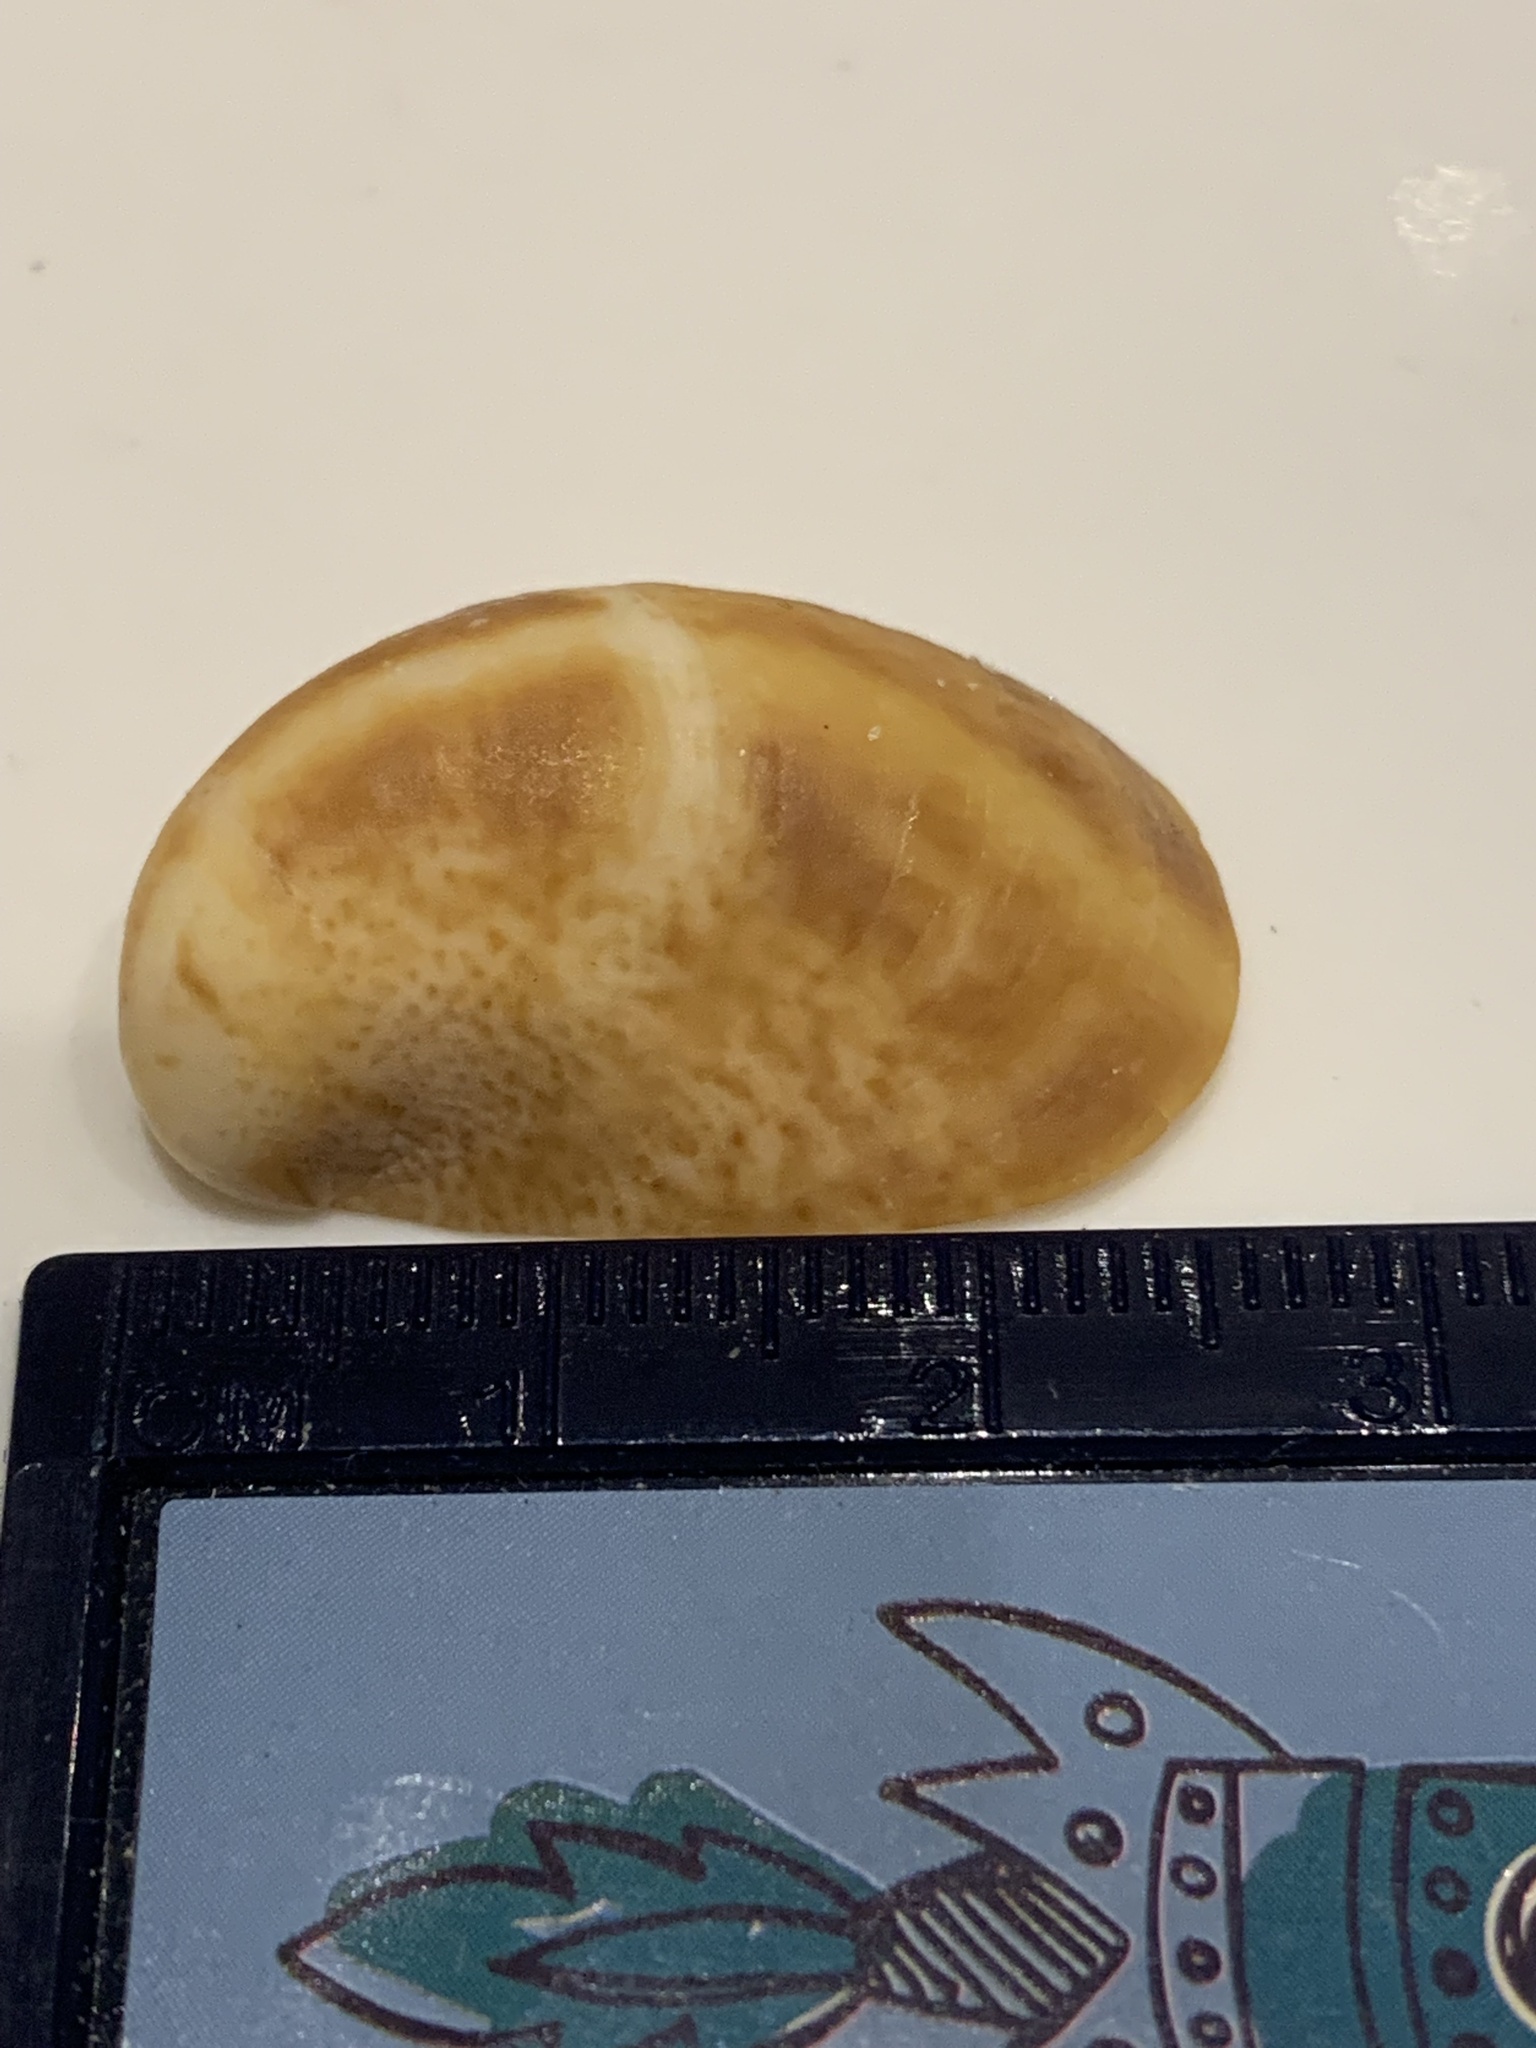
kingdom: Animalia
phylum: Mollusca
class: Gastropoda
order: Littorinimorpha
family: Calyptraeidae
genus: Crepidula
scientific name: Crepidula fornicata
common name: Slipper limpet
